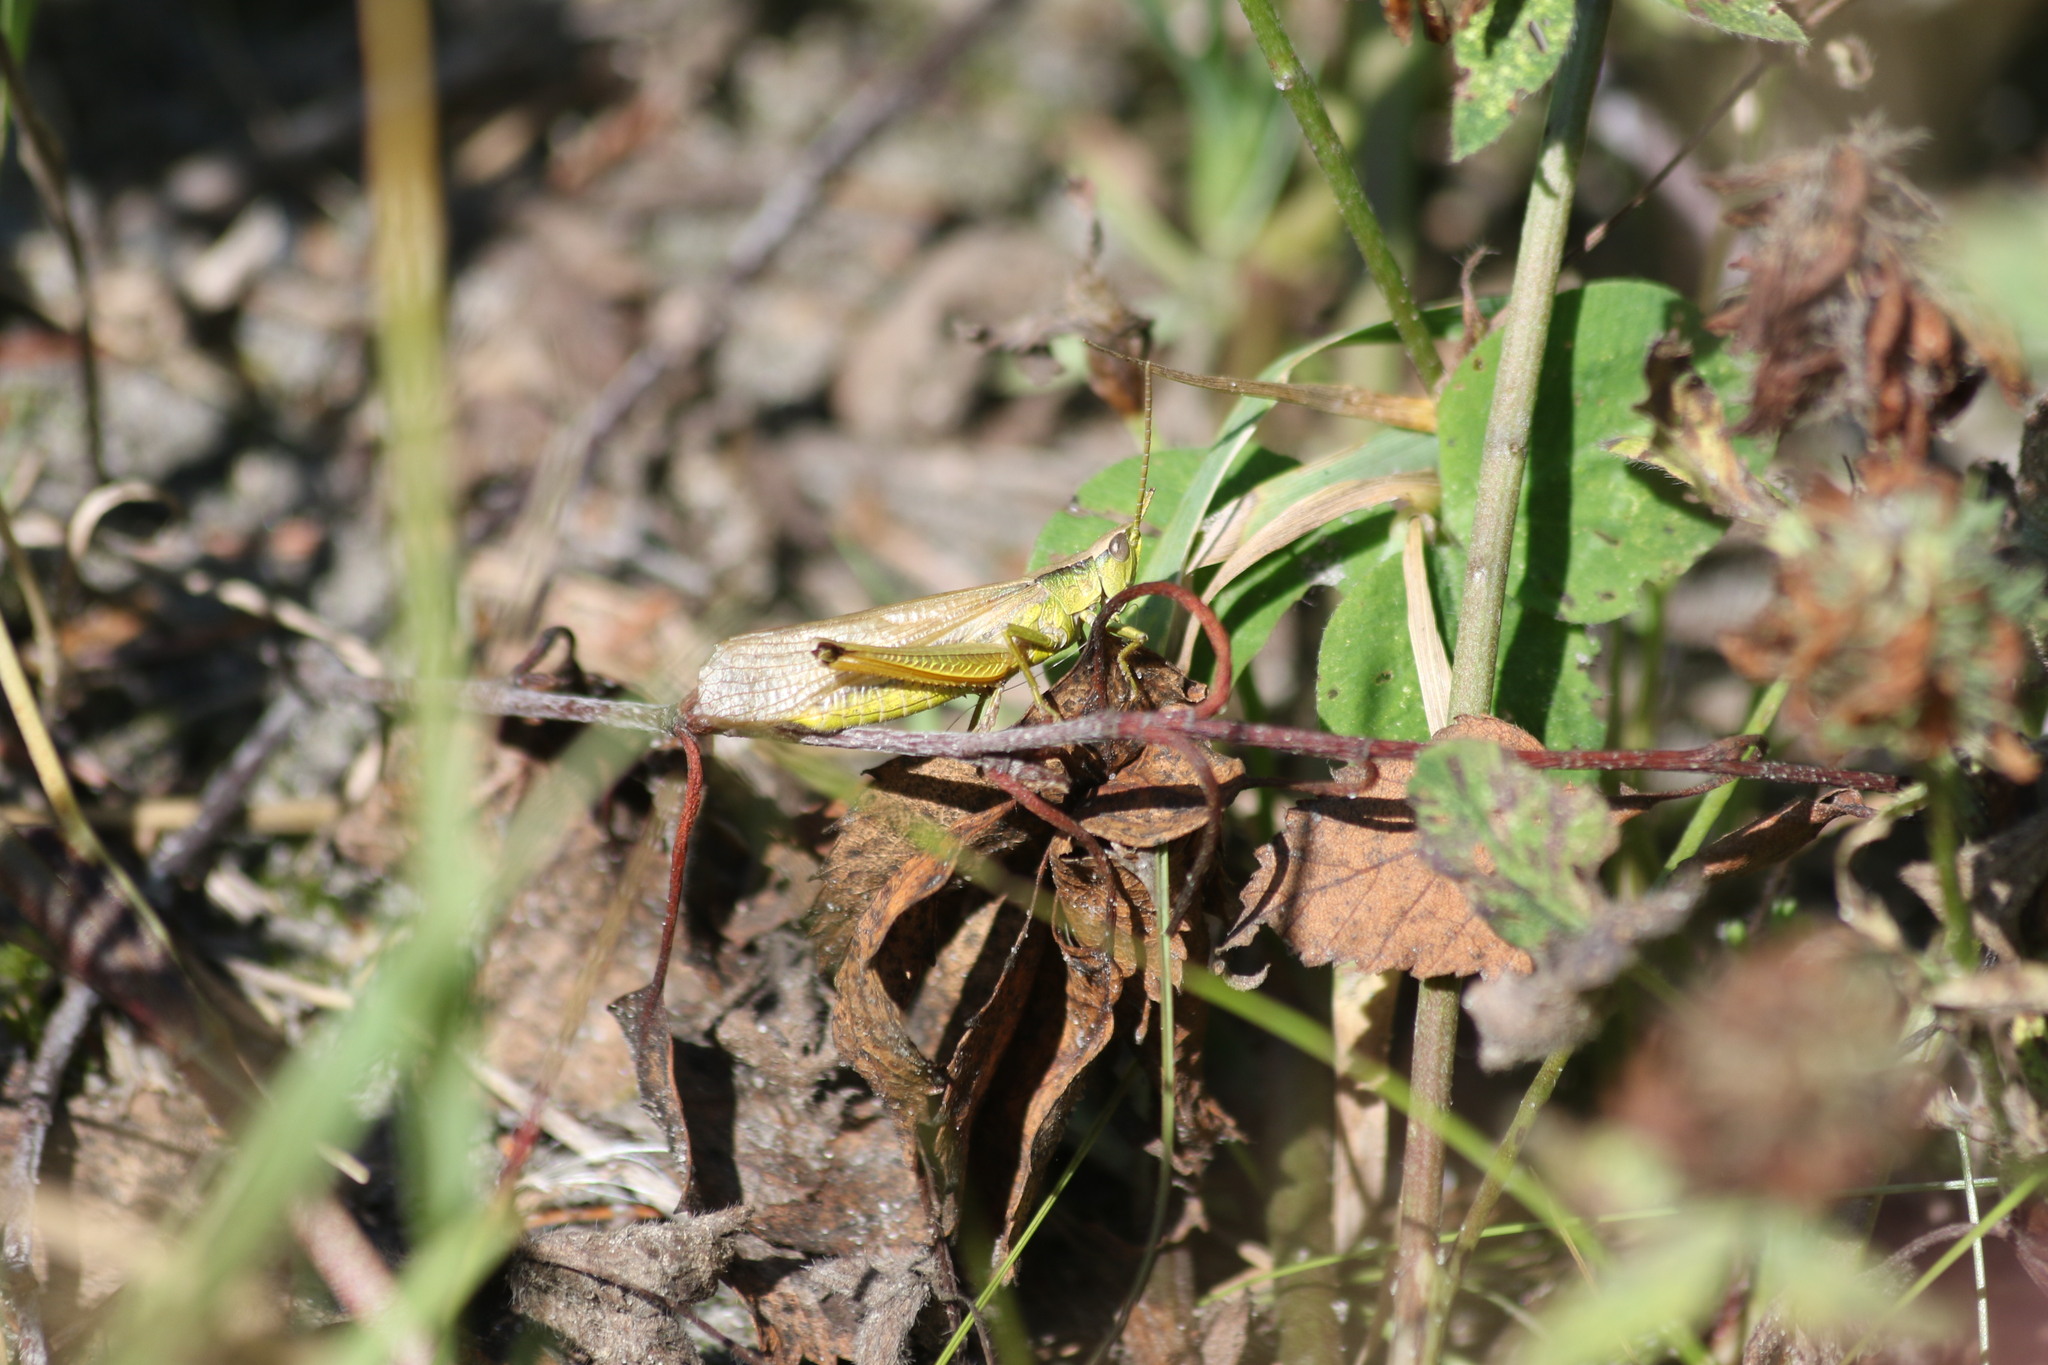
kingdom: Animalia
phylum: Arthropoda
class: Insecta
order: Orthoptera
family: Acrididae
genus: Chrysochraon
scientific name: Chrysochraon dispar
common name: Large gold grasshopper
